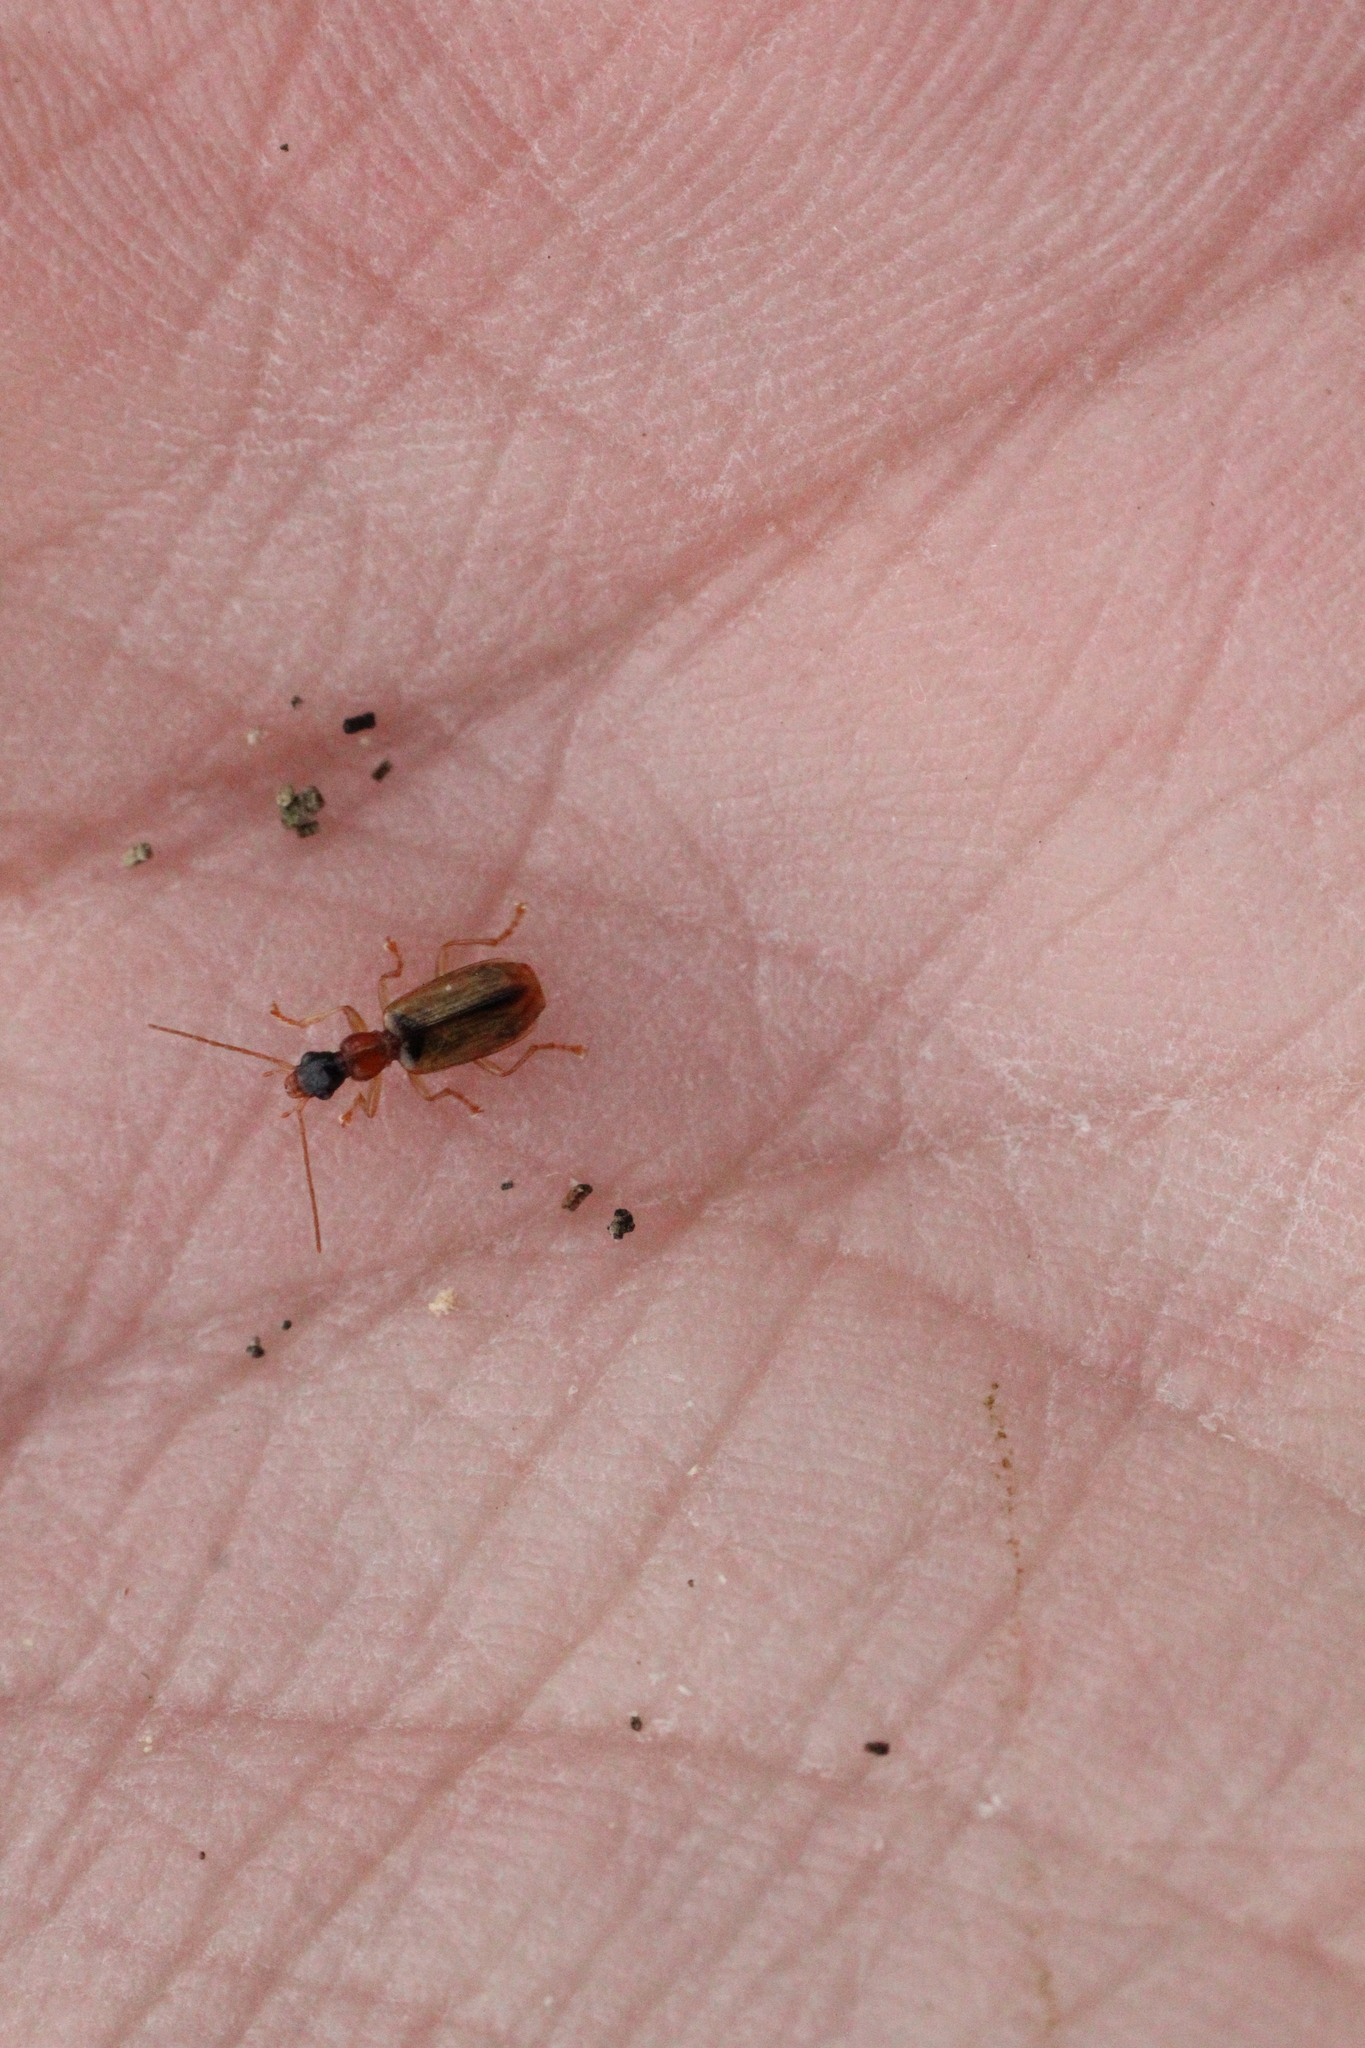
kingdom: Animalia
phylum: Arthropoda
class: Insecta
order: Coleoptera
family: Carabidae
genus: Demetrias
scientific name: Demetrias atricapillus
